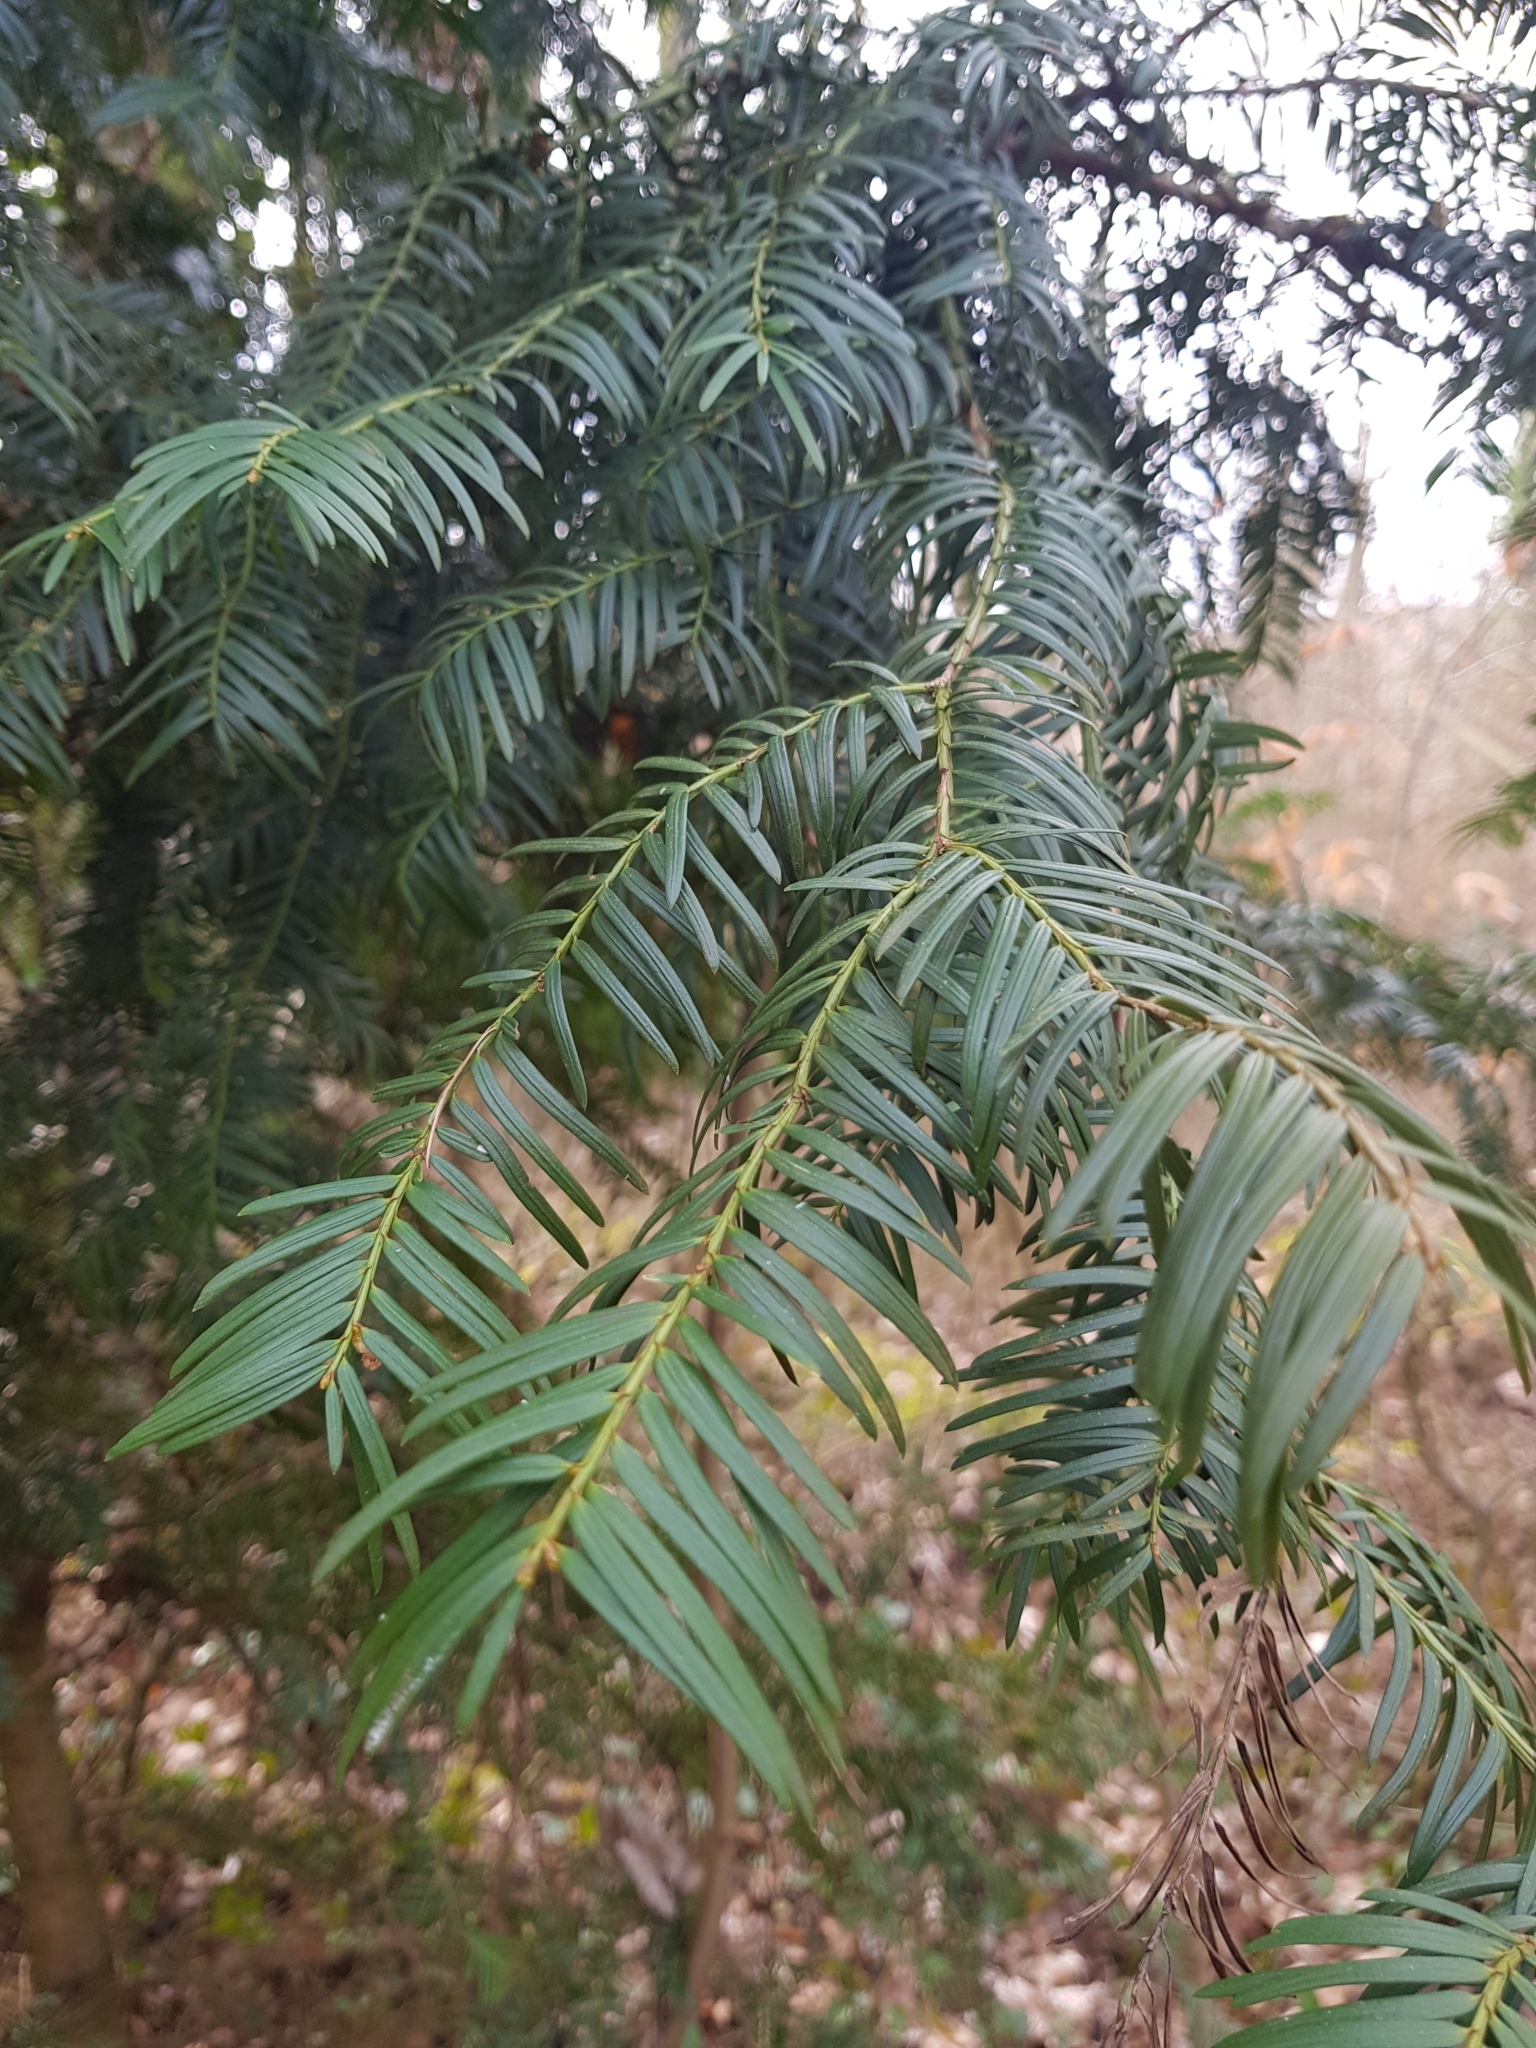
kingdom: Plantae
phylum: Tracheophyta
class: Pinopsida
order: Pinales
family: Taxaceae
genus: Taxus
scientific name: Taxus baccata
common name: Yew
